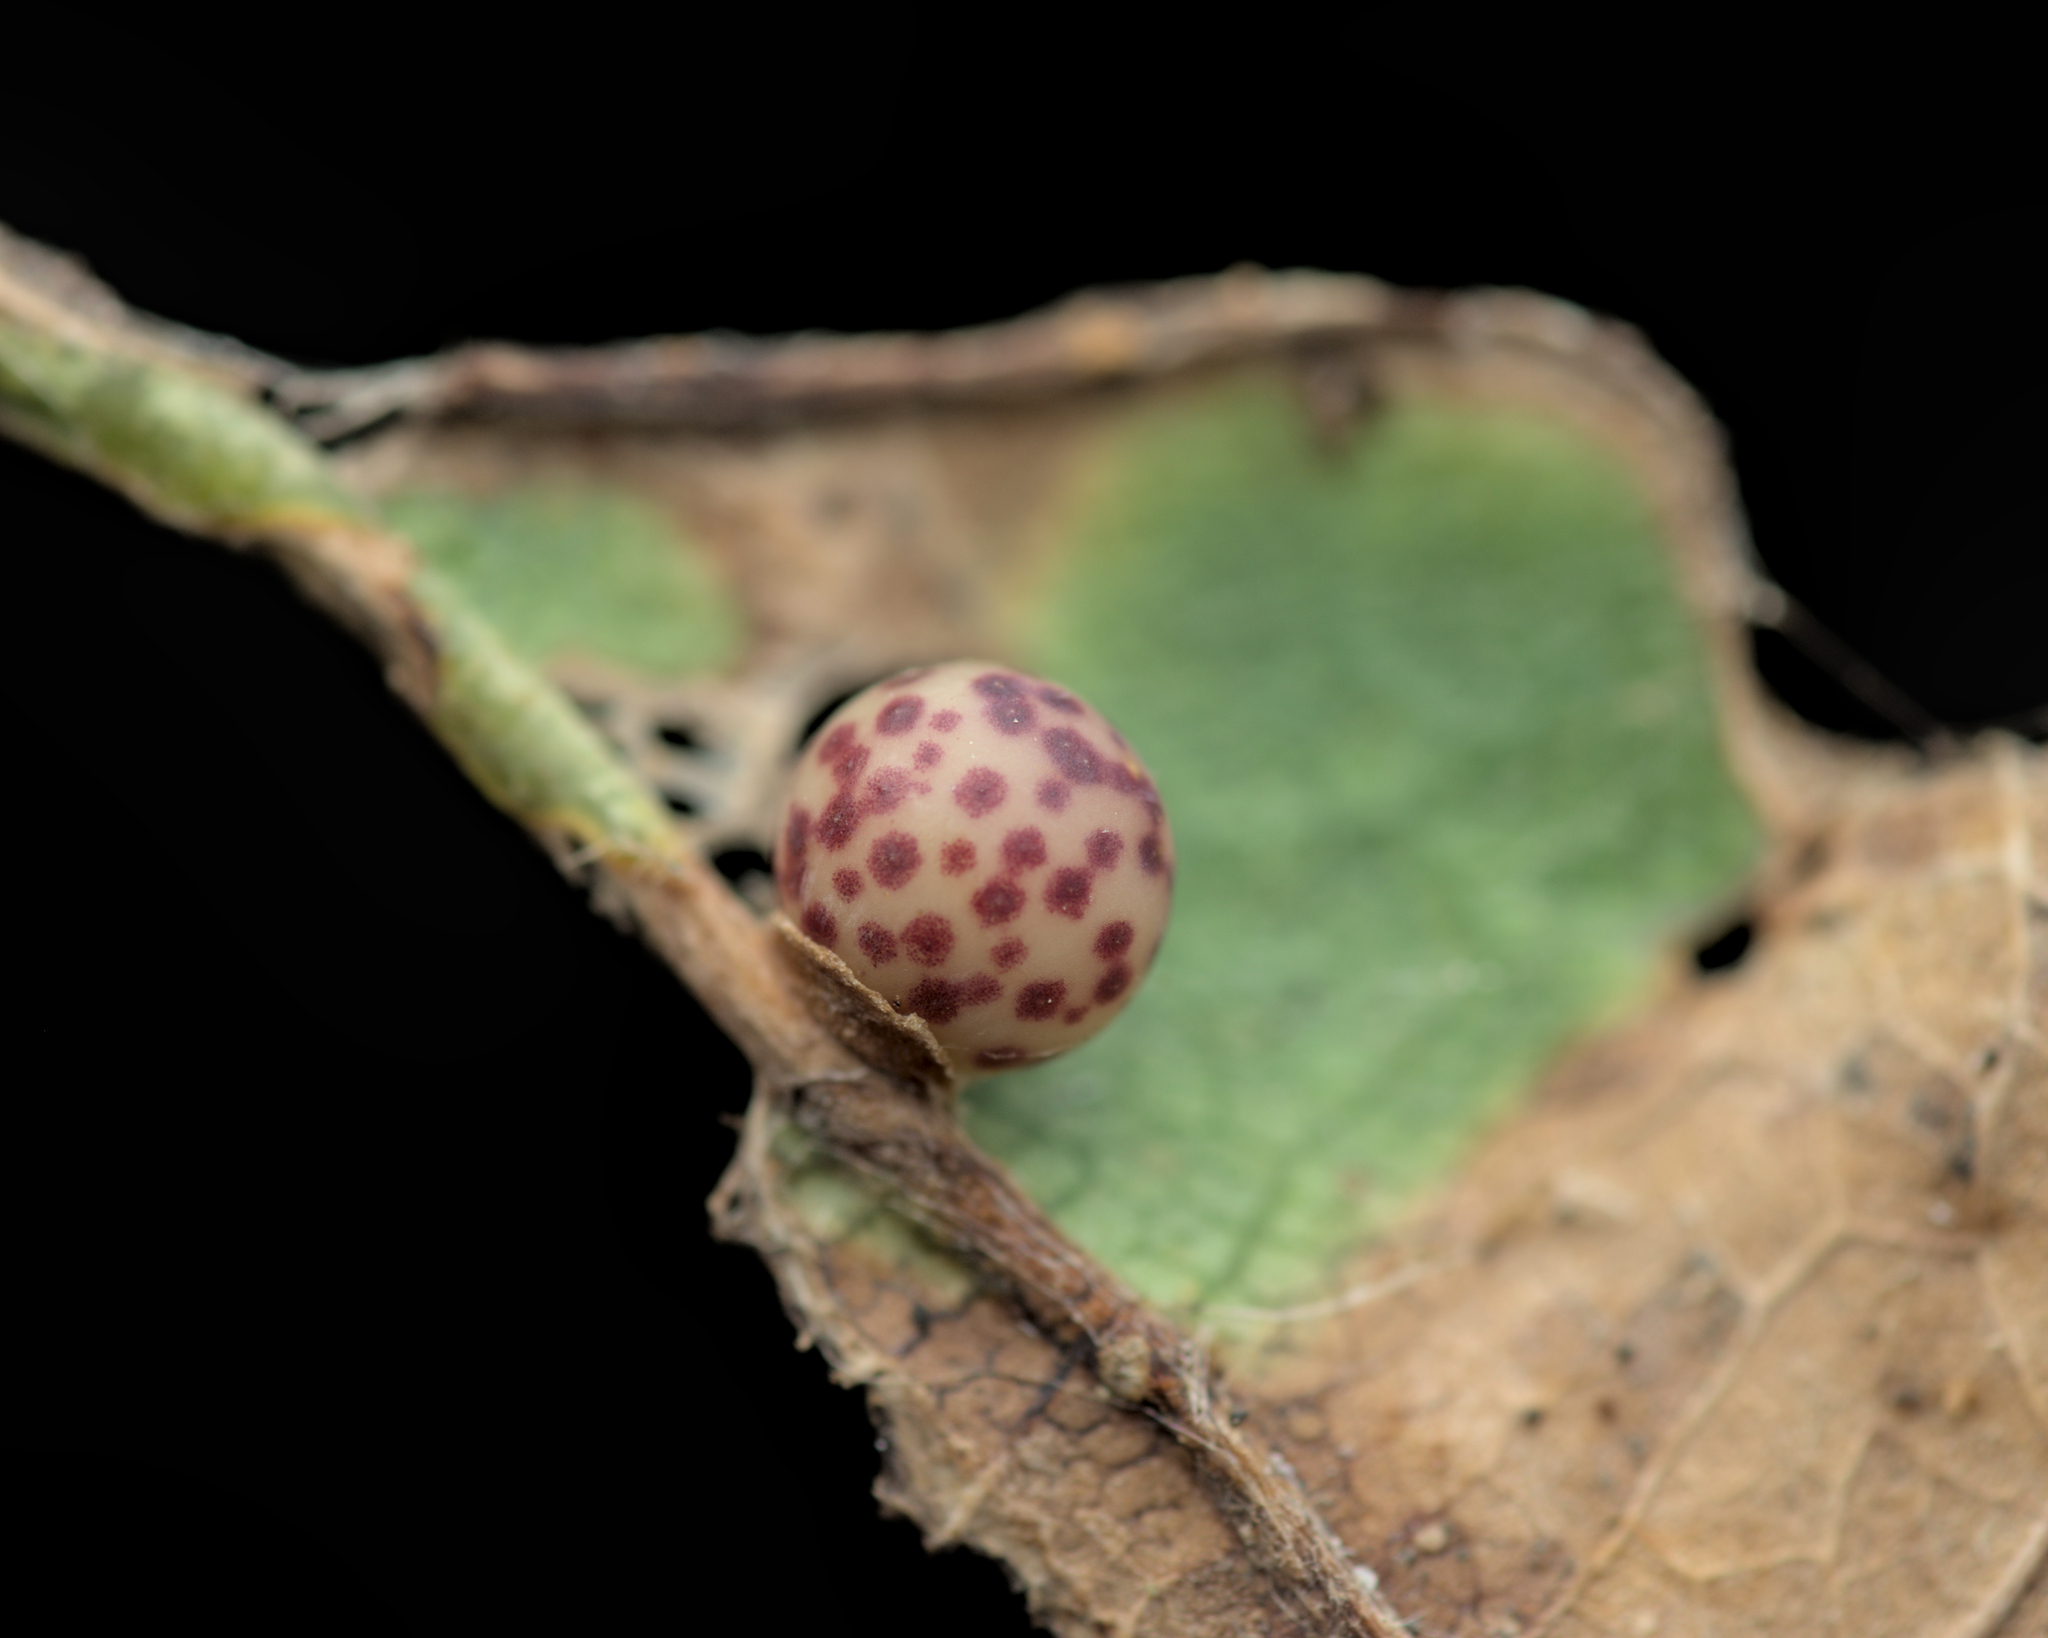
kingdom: Animalia
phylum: Arthropoda
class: Insecta
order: Hymenoptera
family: Cynipidae
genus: Neuroterus
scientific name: Neuroterus anthracinus
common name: Oyster gall
